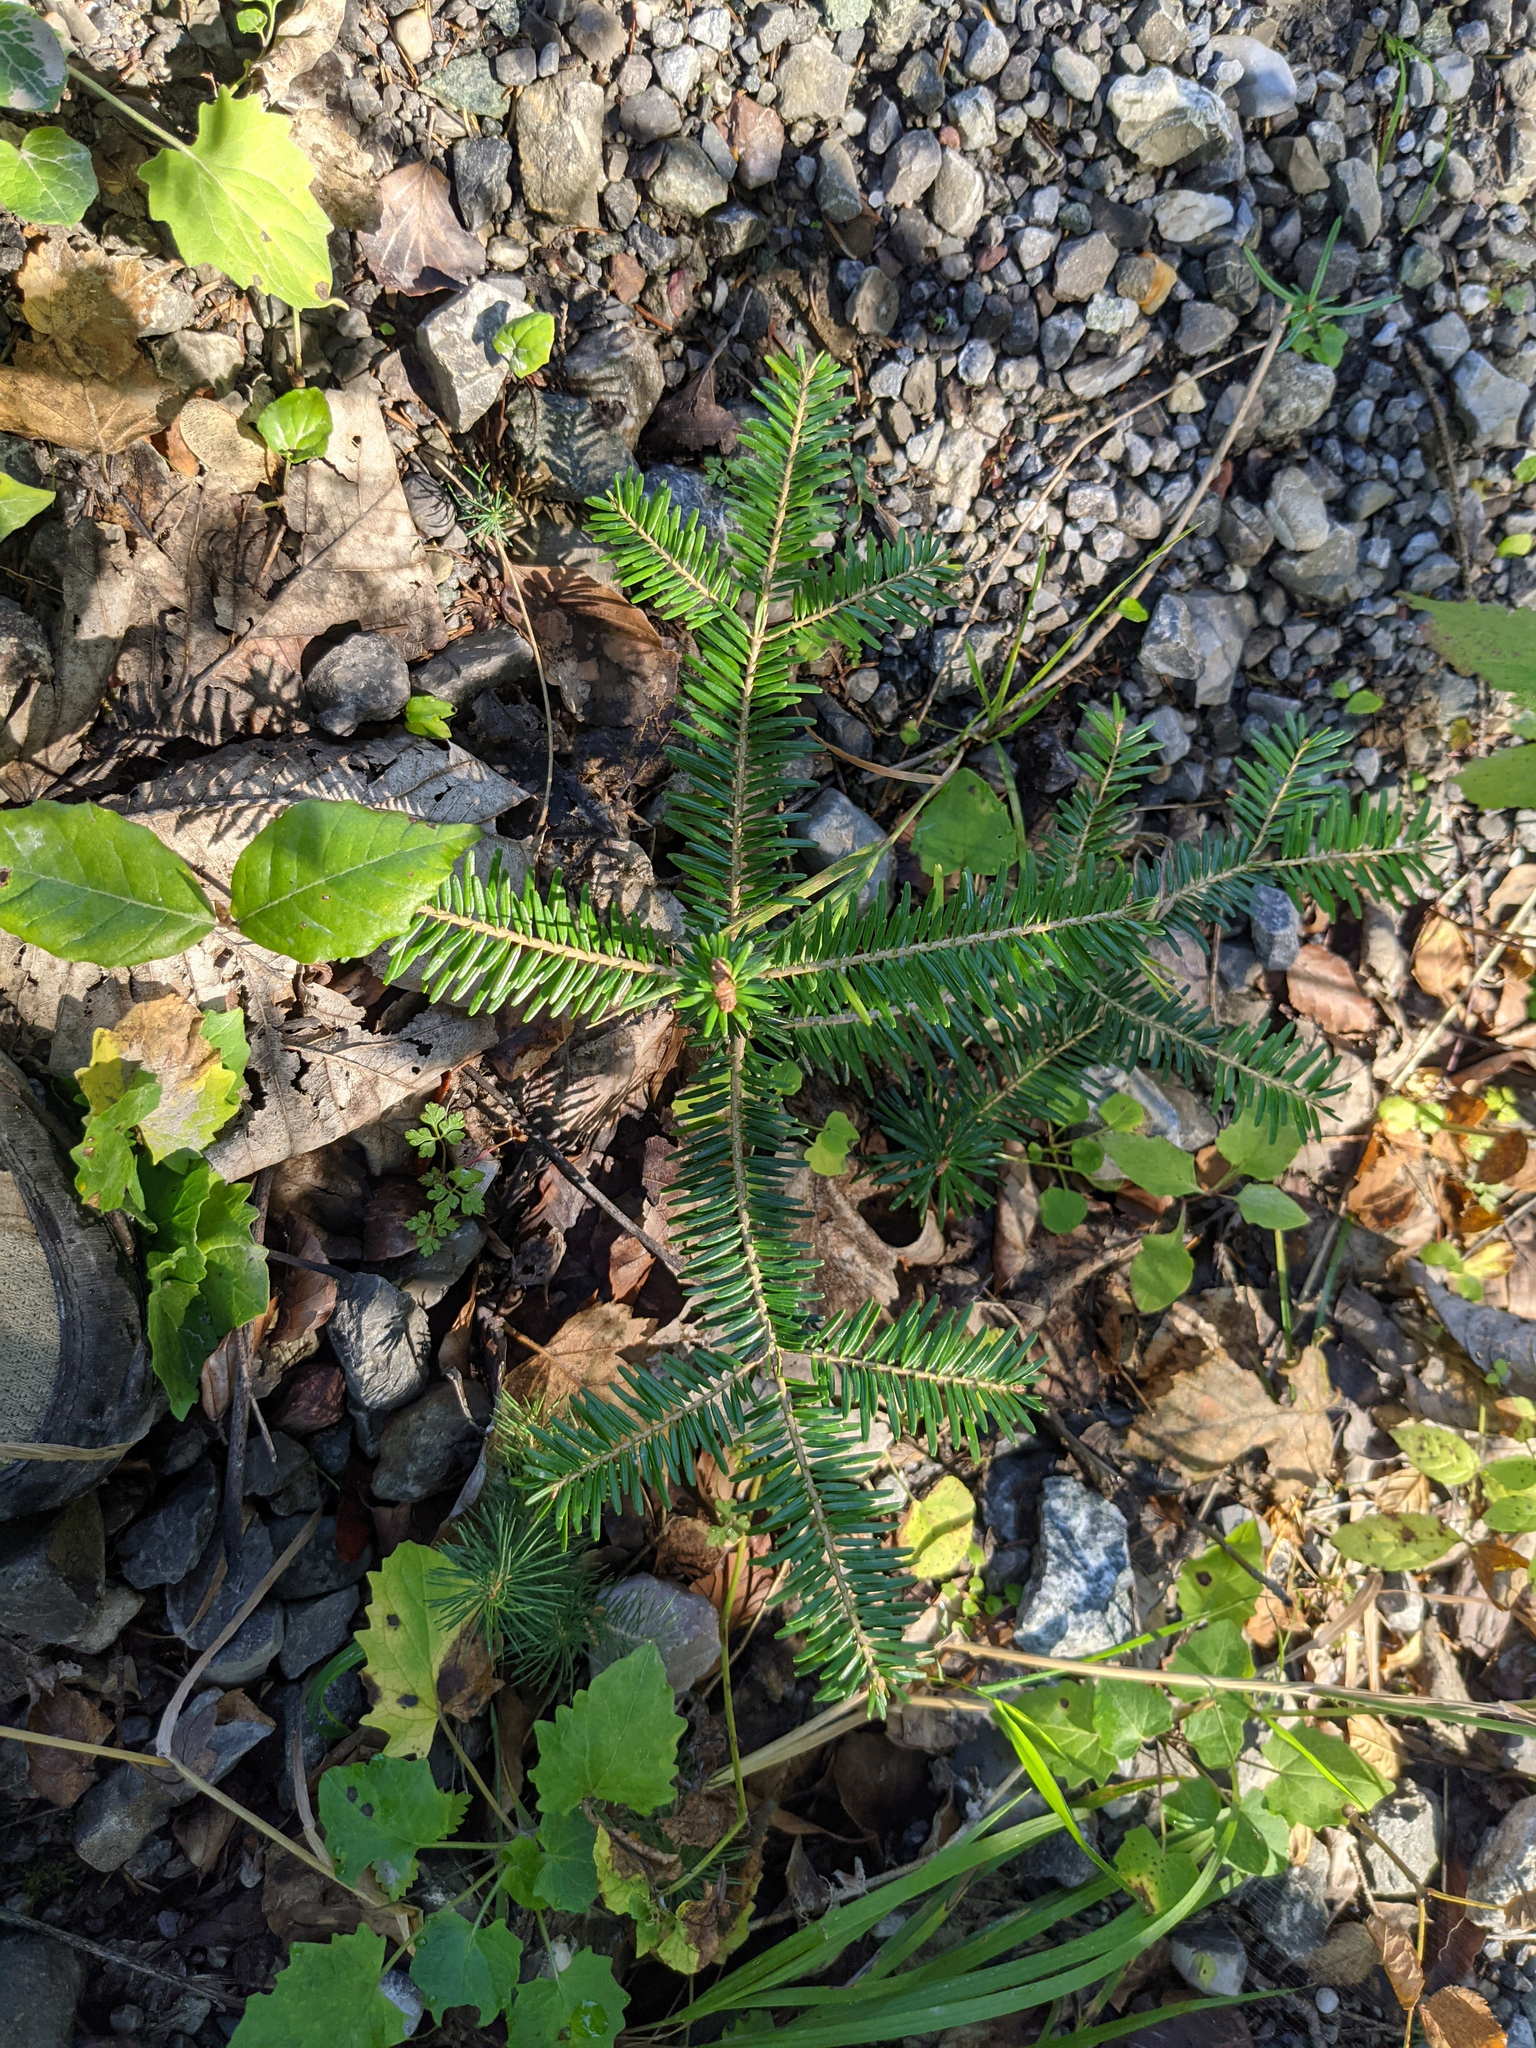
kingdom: Plantae
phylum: Tracheophyta
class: Pinopsida
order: Pinales
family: Pinaceae
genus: Abies
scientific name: Abies alba
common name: Silver fir
